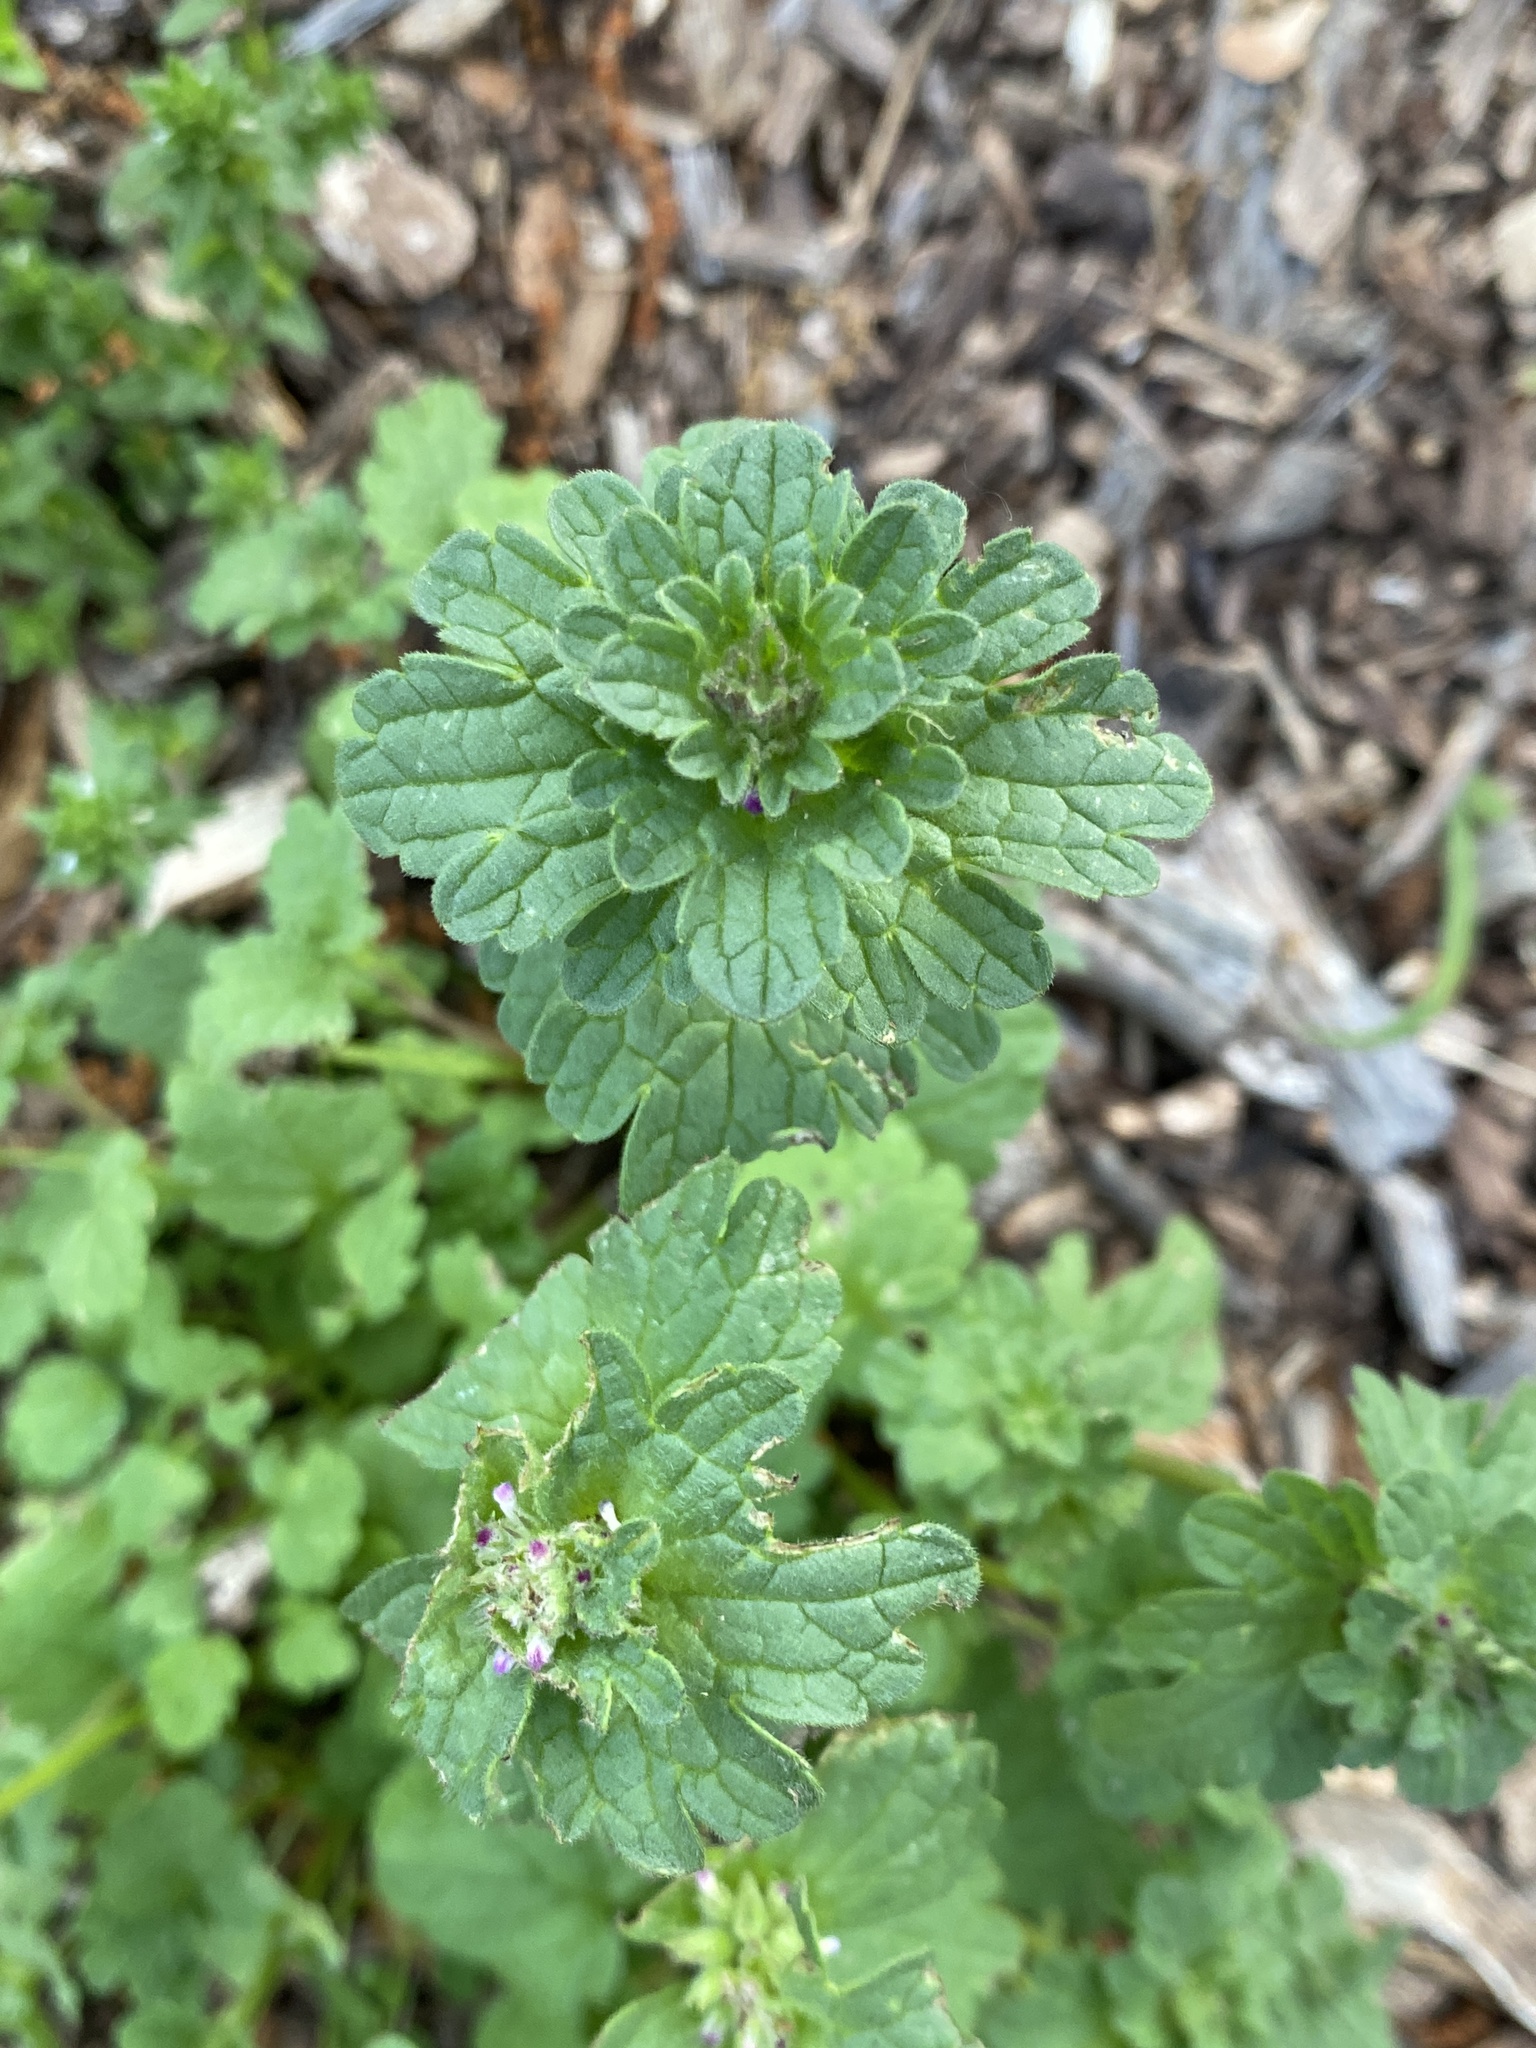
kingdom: Plantae
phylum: Tracheophyta
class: Magnoliopsida
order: Lamiales
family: Lamiaceae
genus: Lamium
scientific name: Lamium amplexicaule
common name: Henbit dead-nettle
